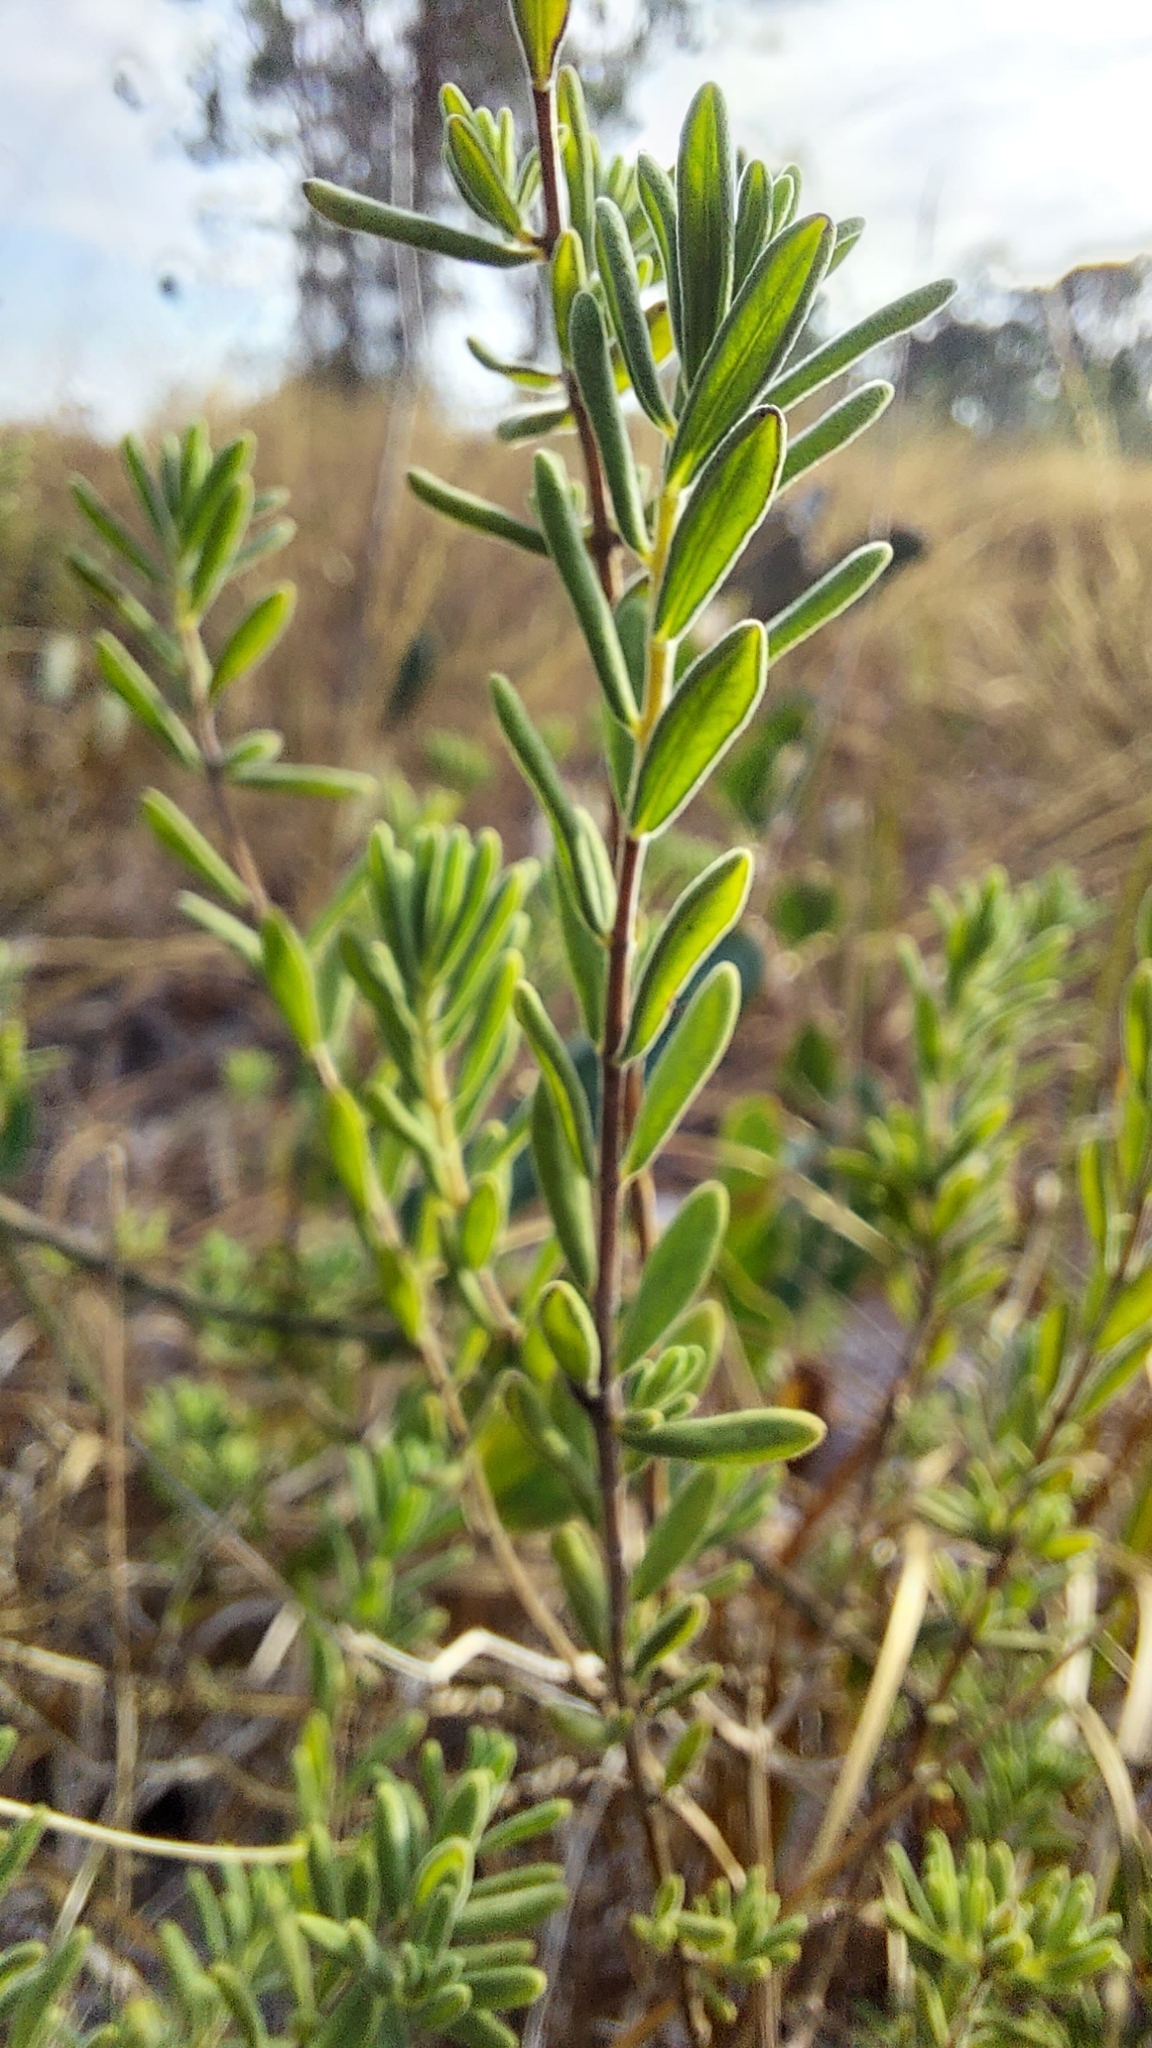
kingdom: Plantae
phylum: Tracheophyta
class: Magnoliopsida
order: Lamiales
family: Lamiaceae
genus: Clinopodium
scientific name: Clinopodium ashei
